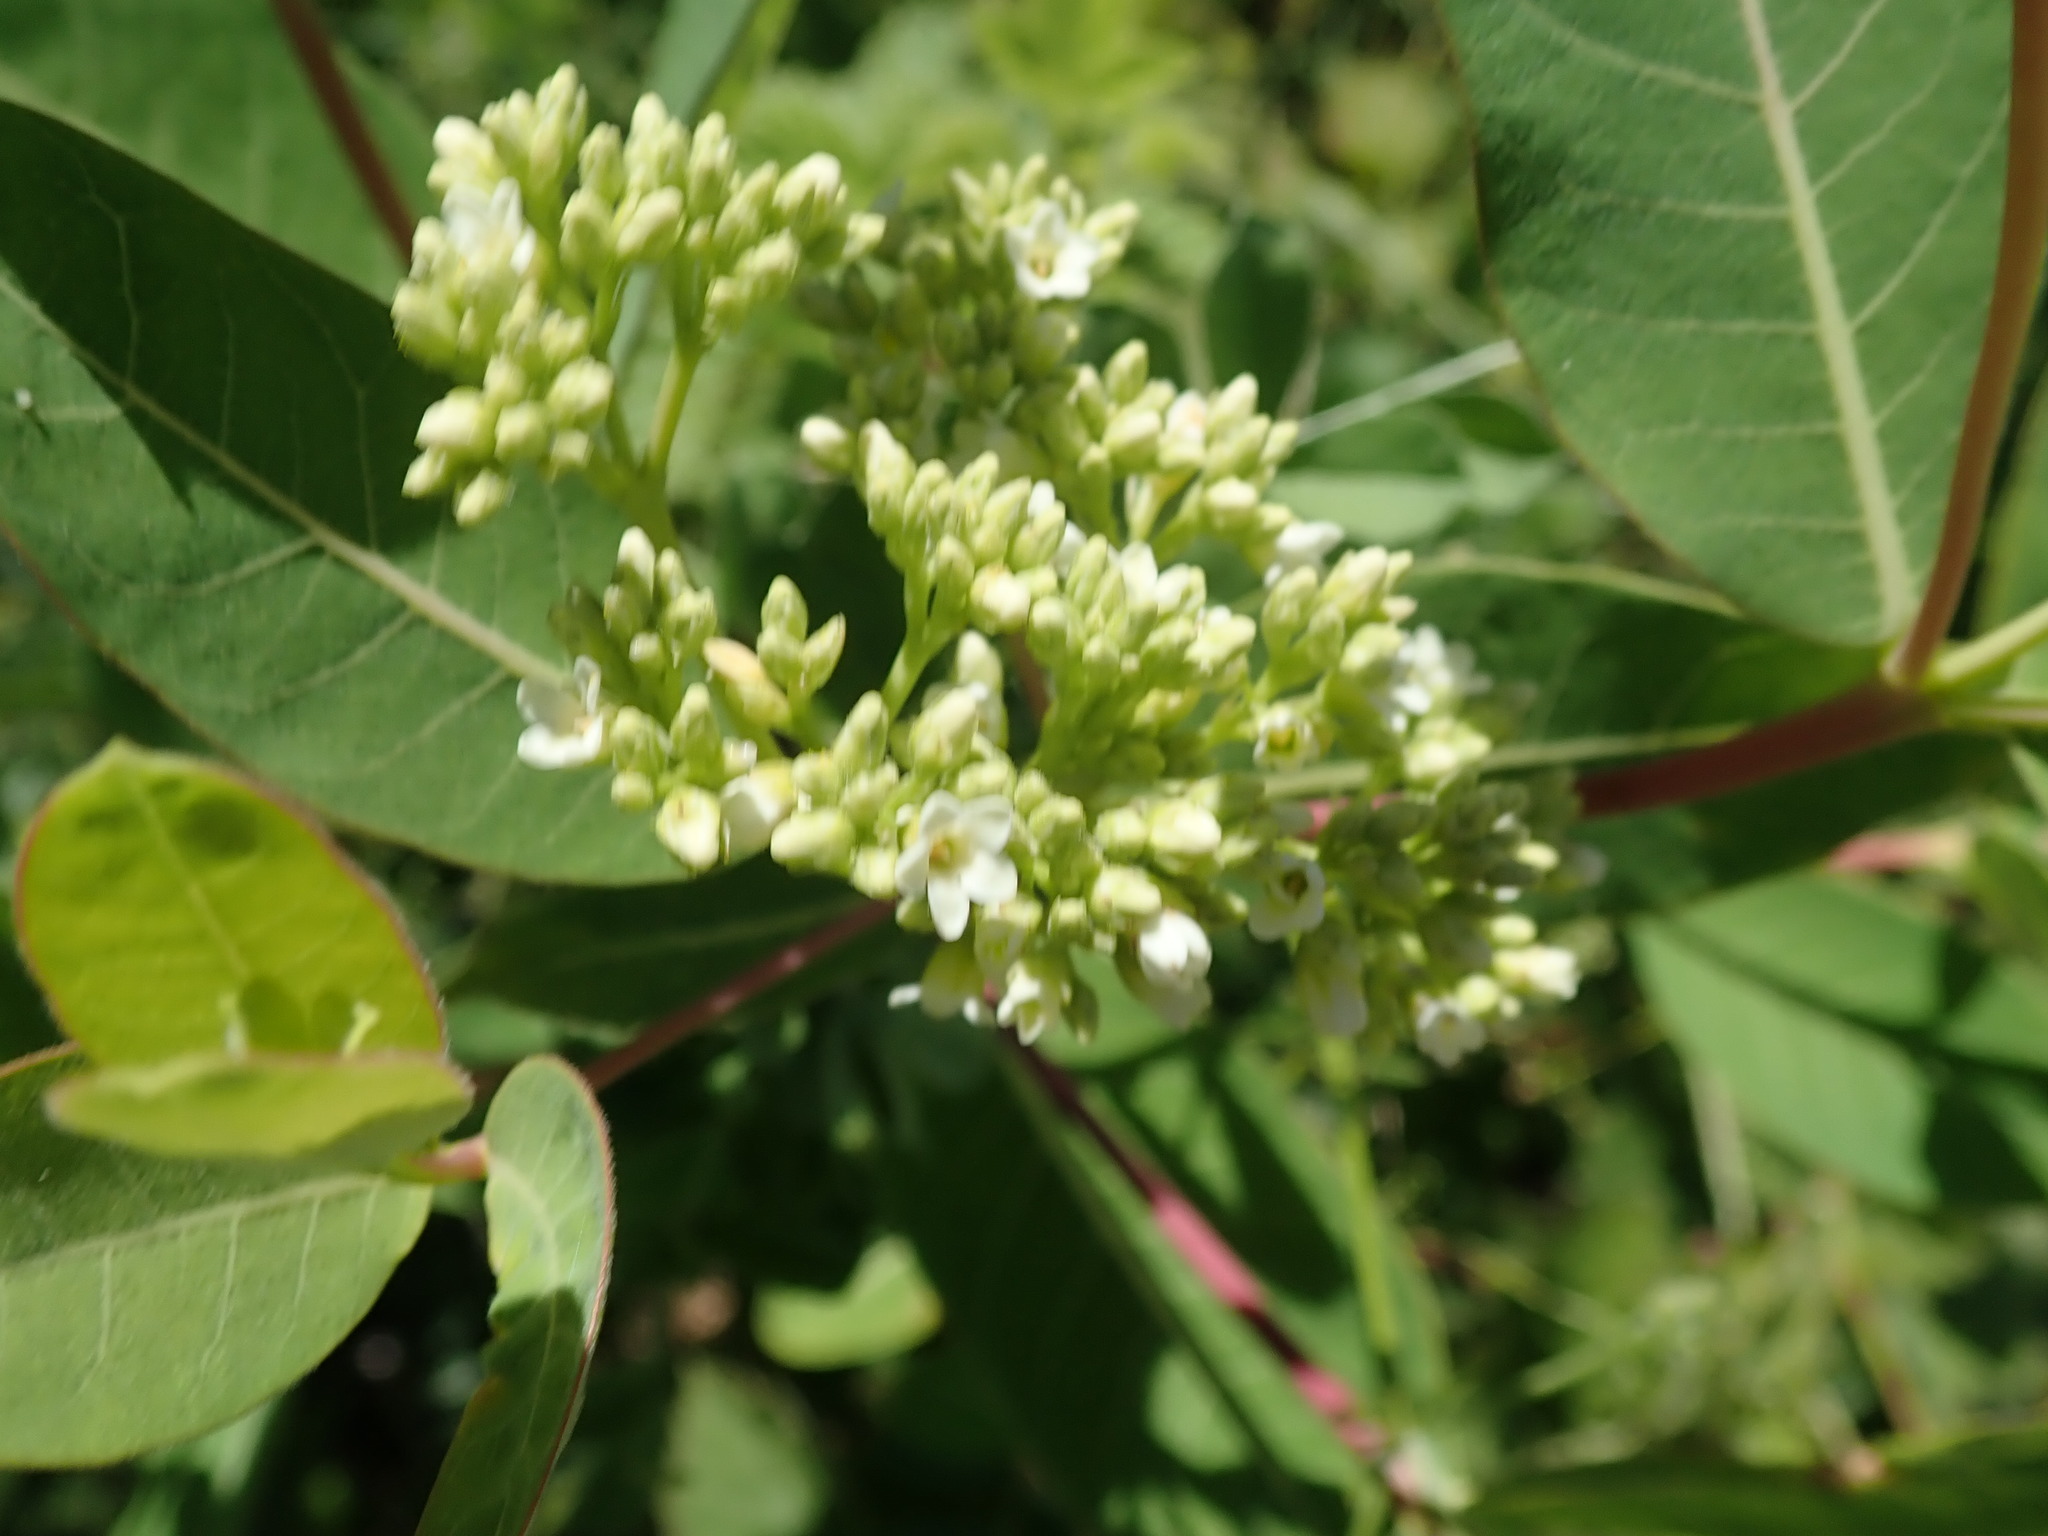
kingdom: Plantae
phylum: Tracheophyta
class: Magnoliopsida
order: Gentianales
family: Apocynaceae
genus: Apocynum
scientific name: Apocynum cannabinum
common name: Hemp dogbane
